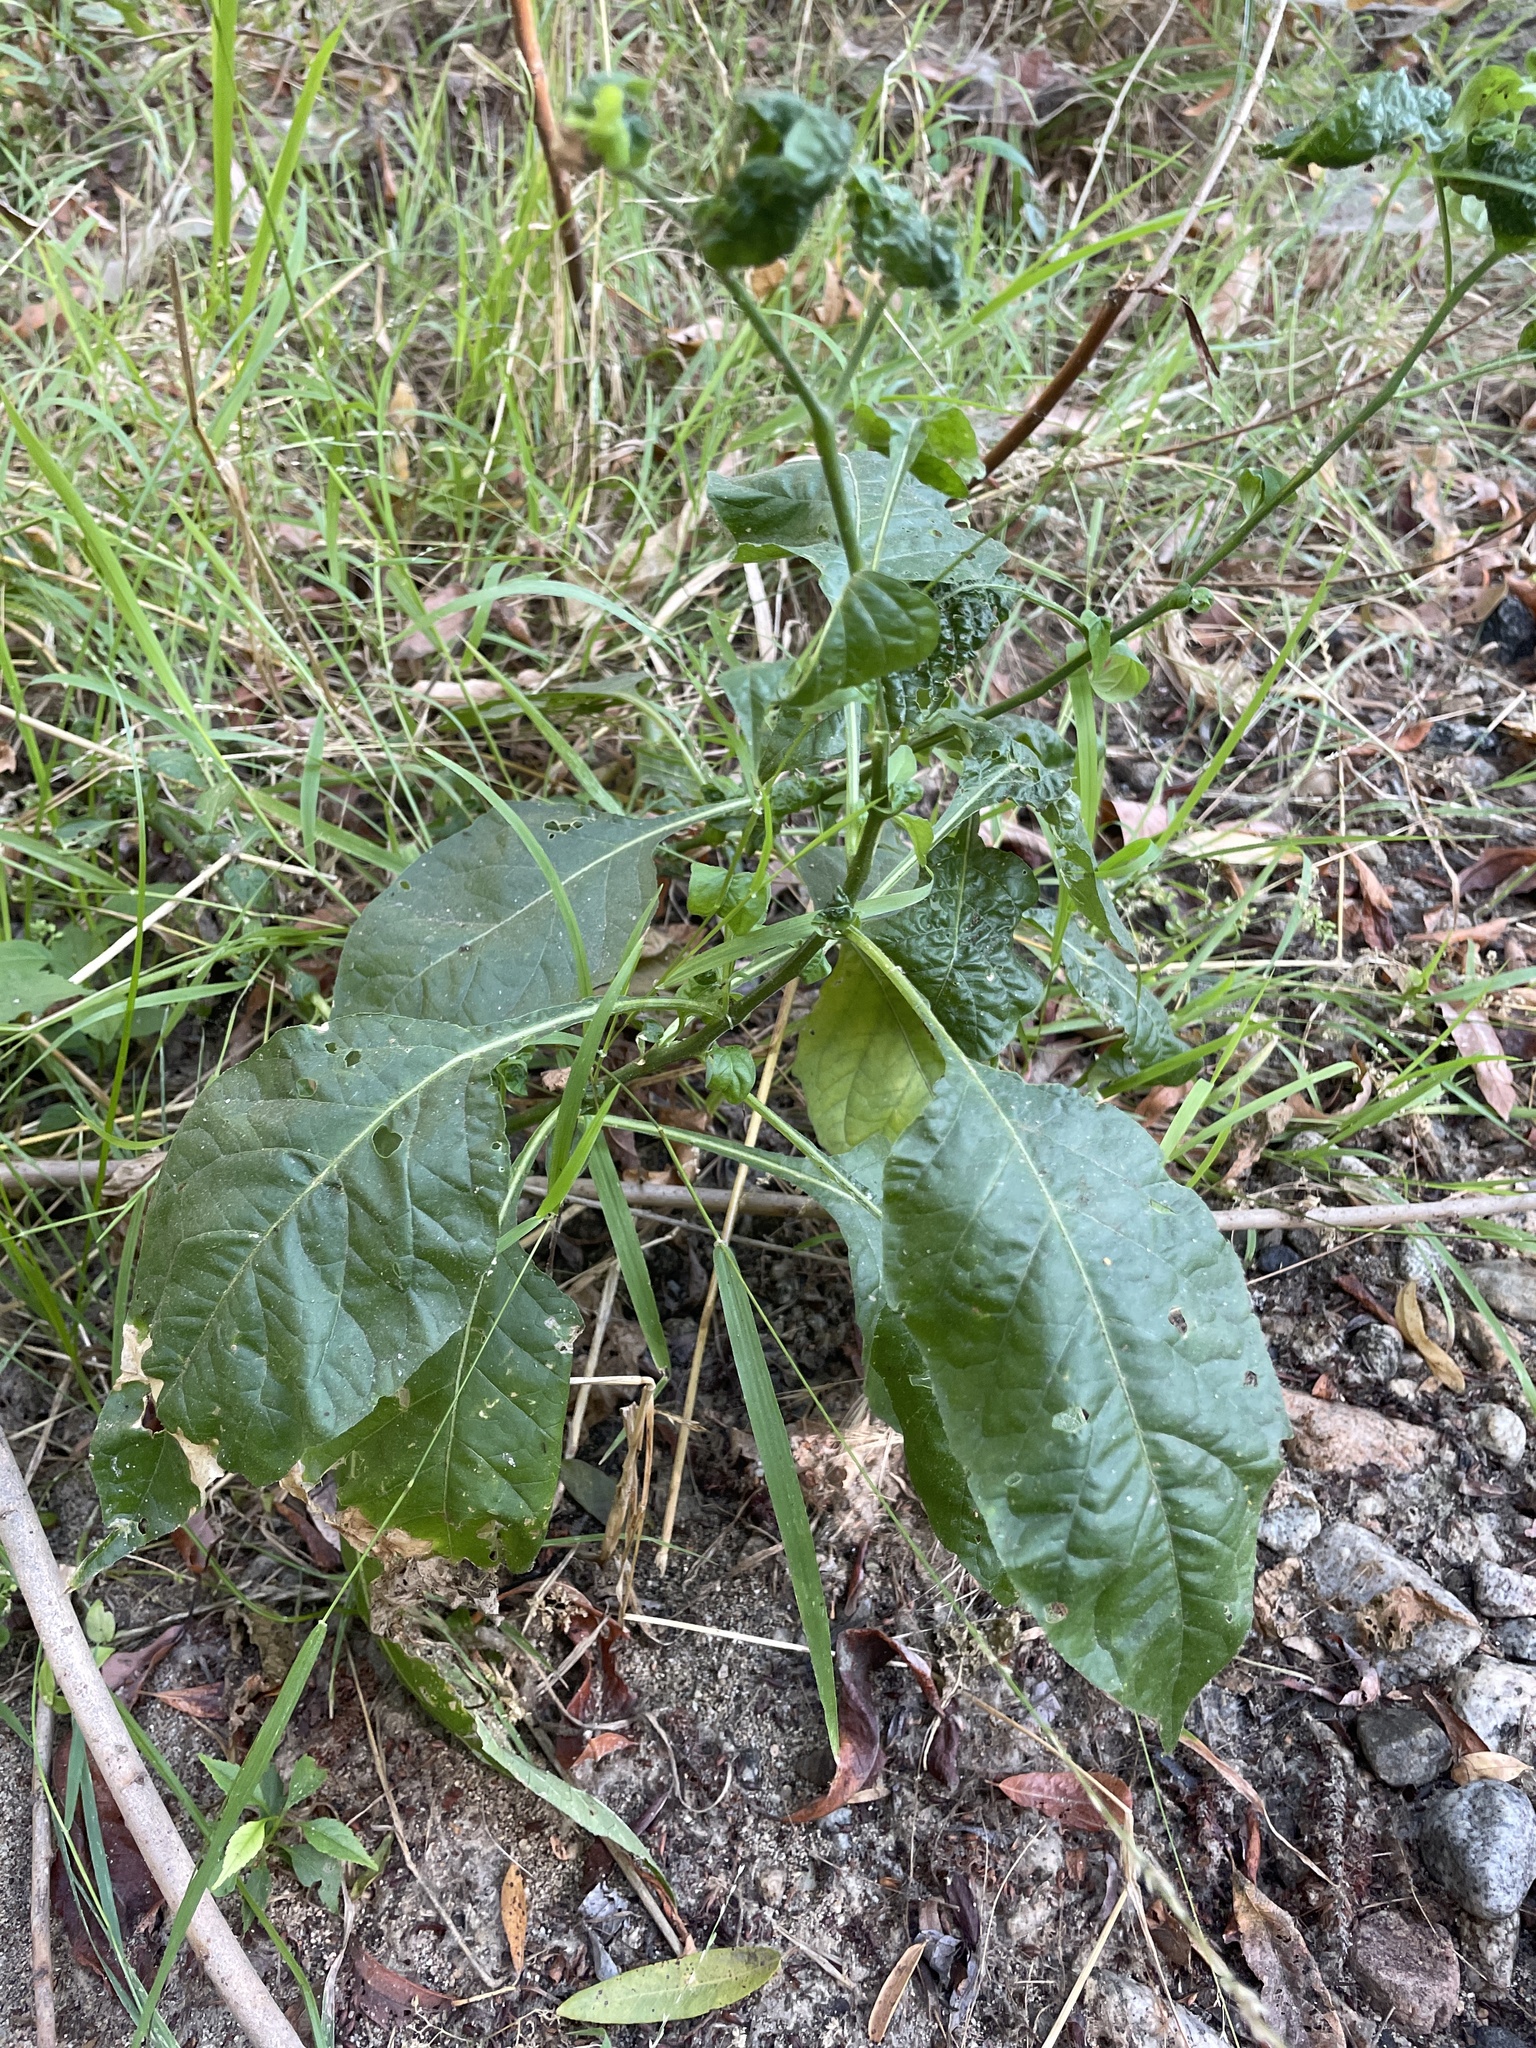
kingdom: Plantae
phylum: Tracheophyta
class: Magnoliopsida
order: Solanales
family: Solanaceae
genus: Solanum
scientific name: Solanum
